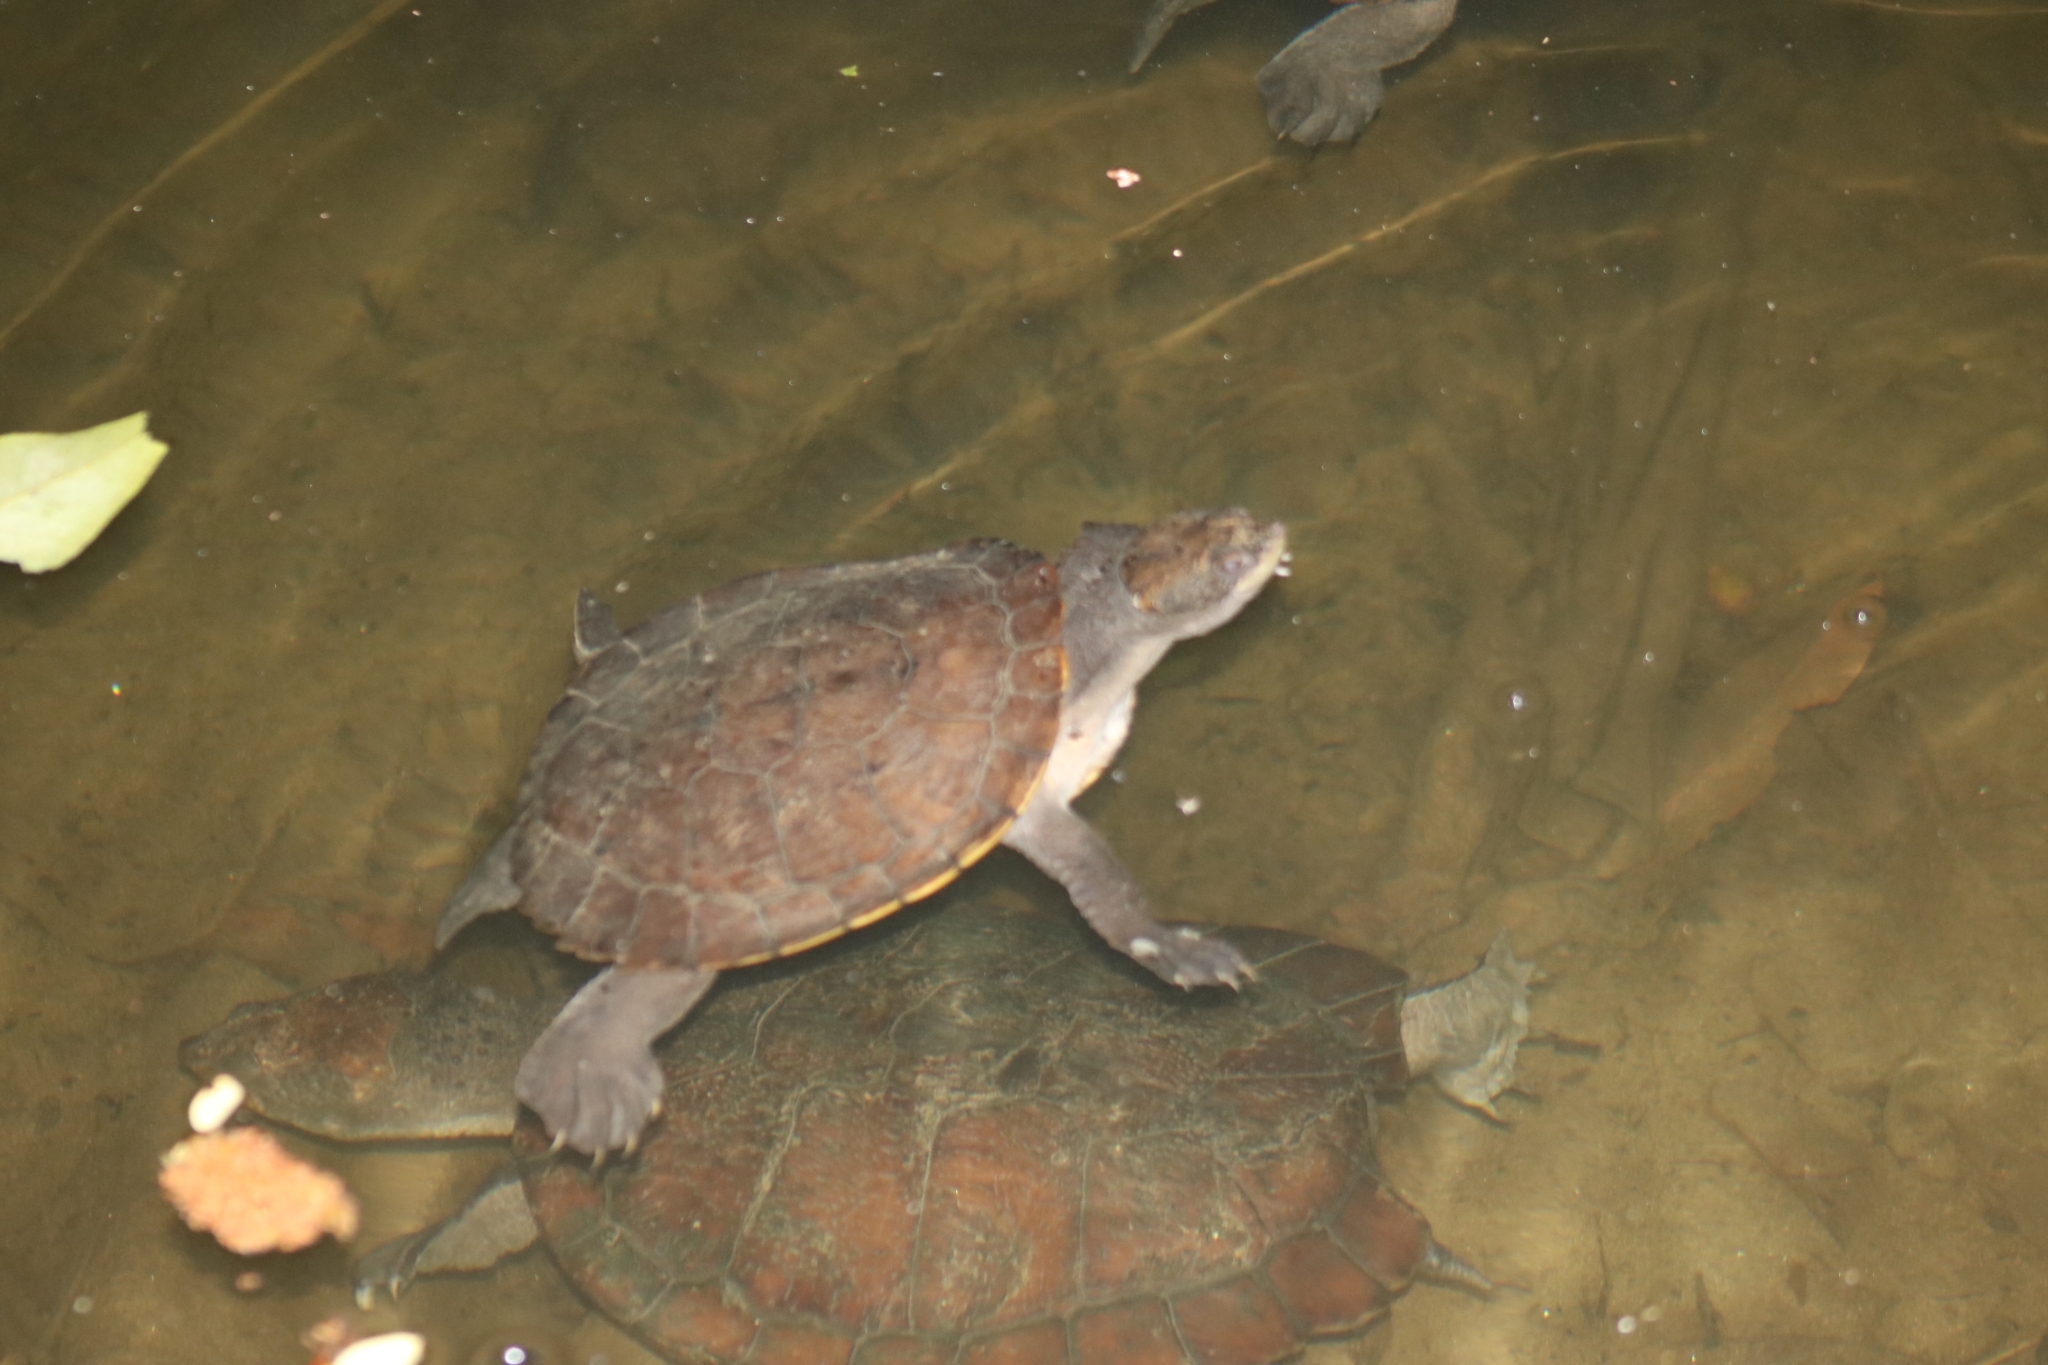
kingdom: Animalia
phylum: Chordata
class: Testudines
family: Chelidae
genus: Myuchelys
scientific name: Myuchelys latisternum
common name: Serrated snapping turtle
